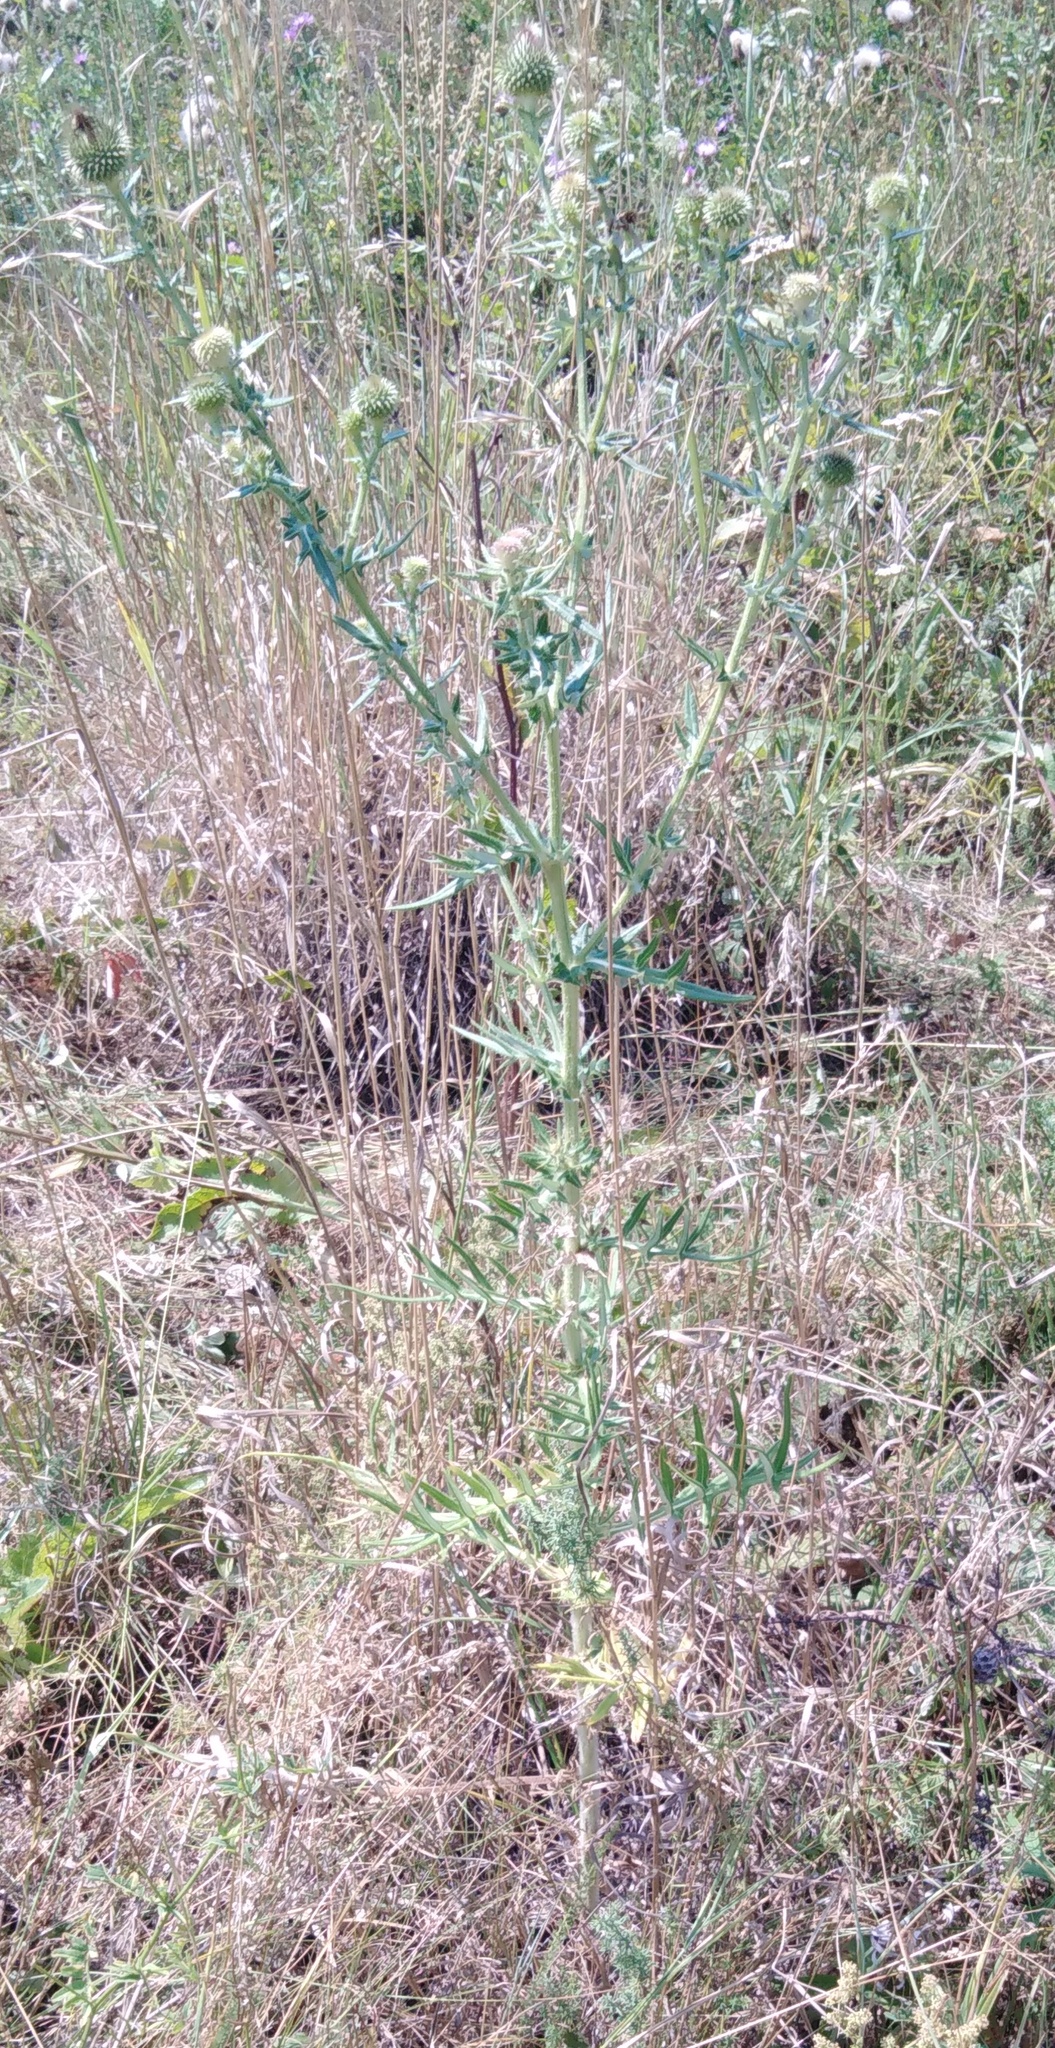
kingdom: Plantae
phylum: Tracheophyta
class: Magnoliopsida
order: Asterales
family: Asteraceae
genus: Lophiolepis
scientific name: Lophiolepis ciliata
